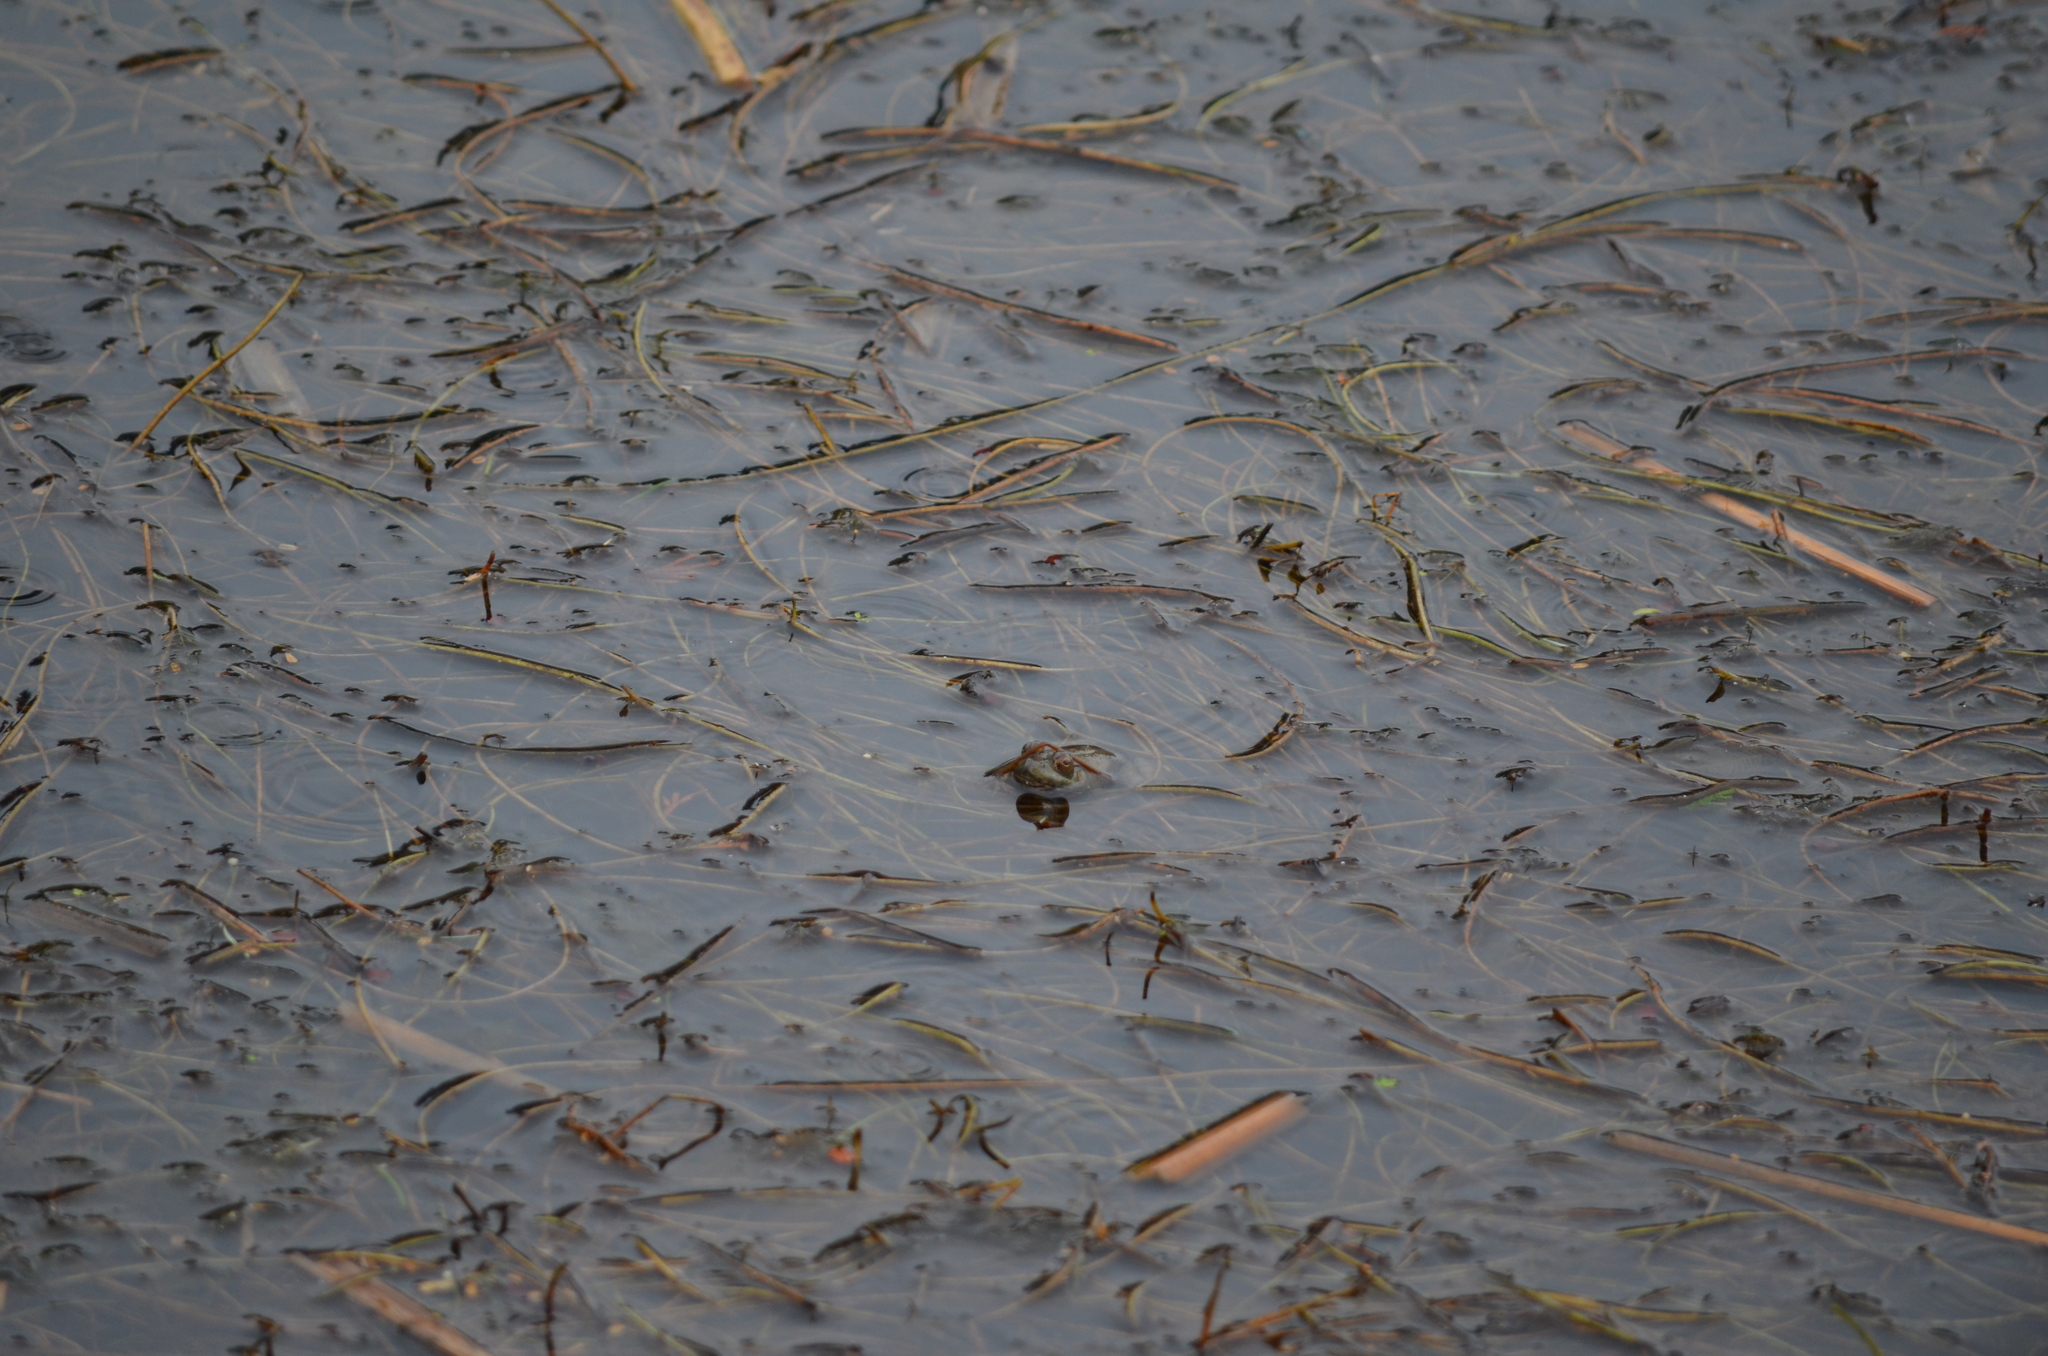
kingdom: Animalia
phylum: Chordata
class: Amphibia
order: Anura
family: Ranidae
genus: Lithobates
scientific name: Lithobates catesbeianus
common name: American bullfrog
